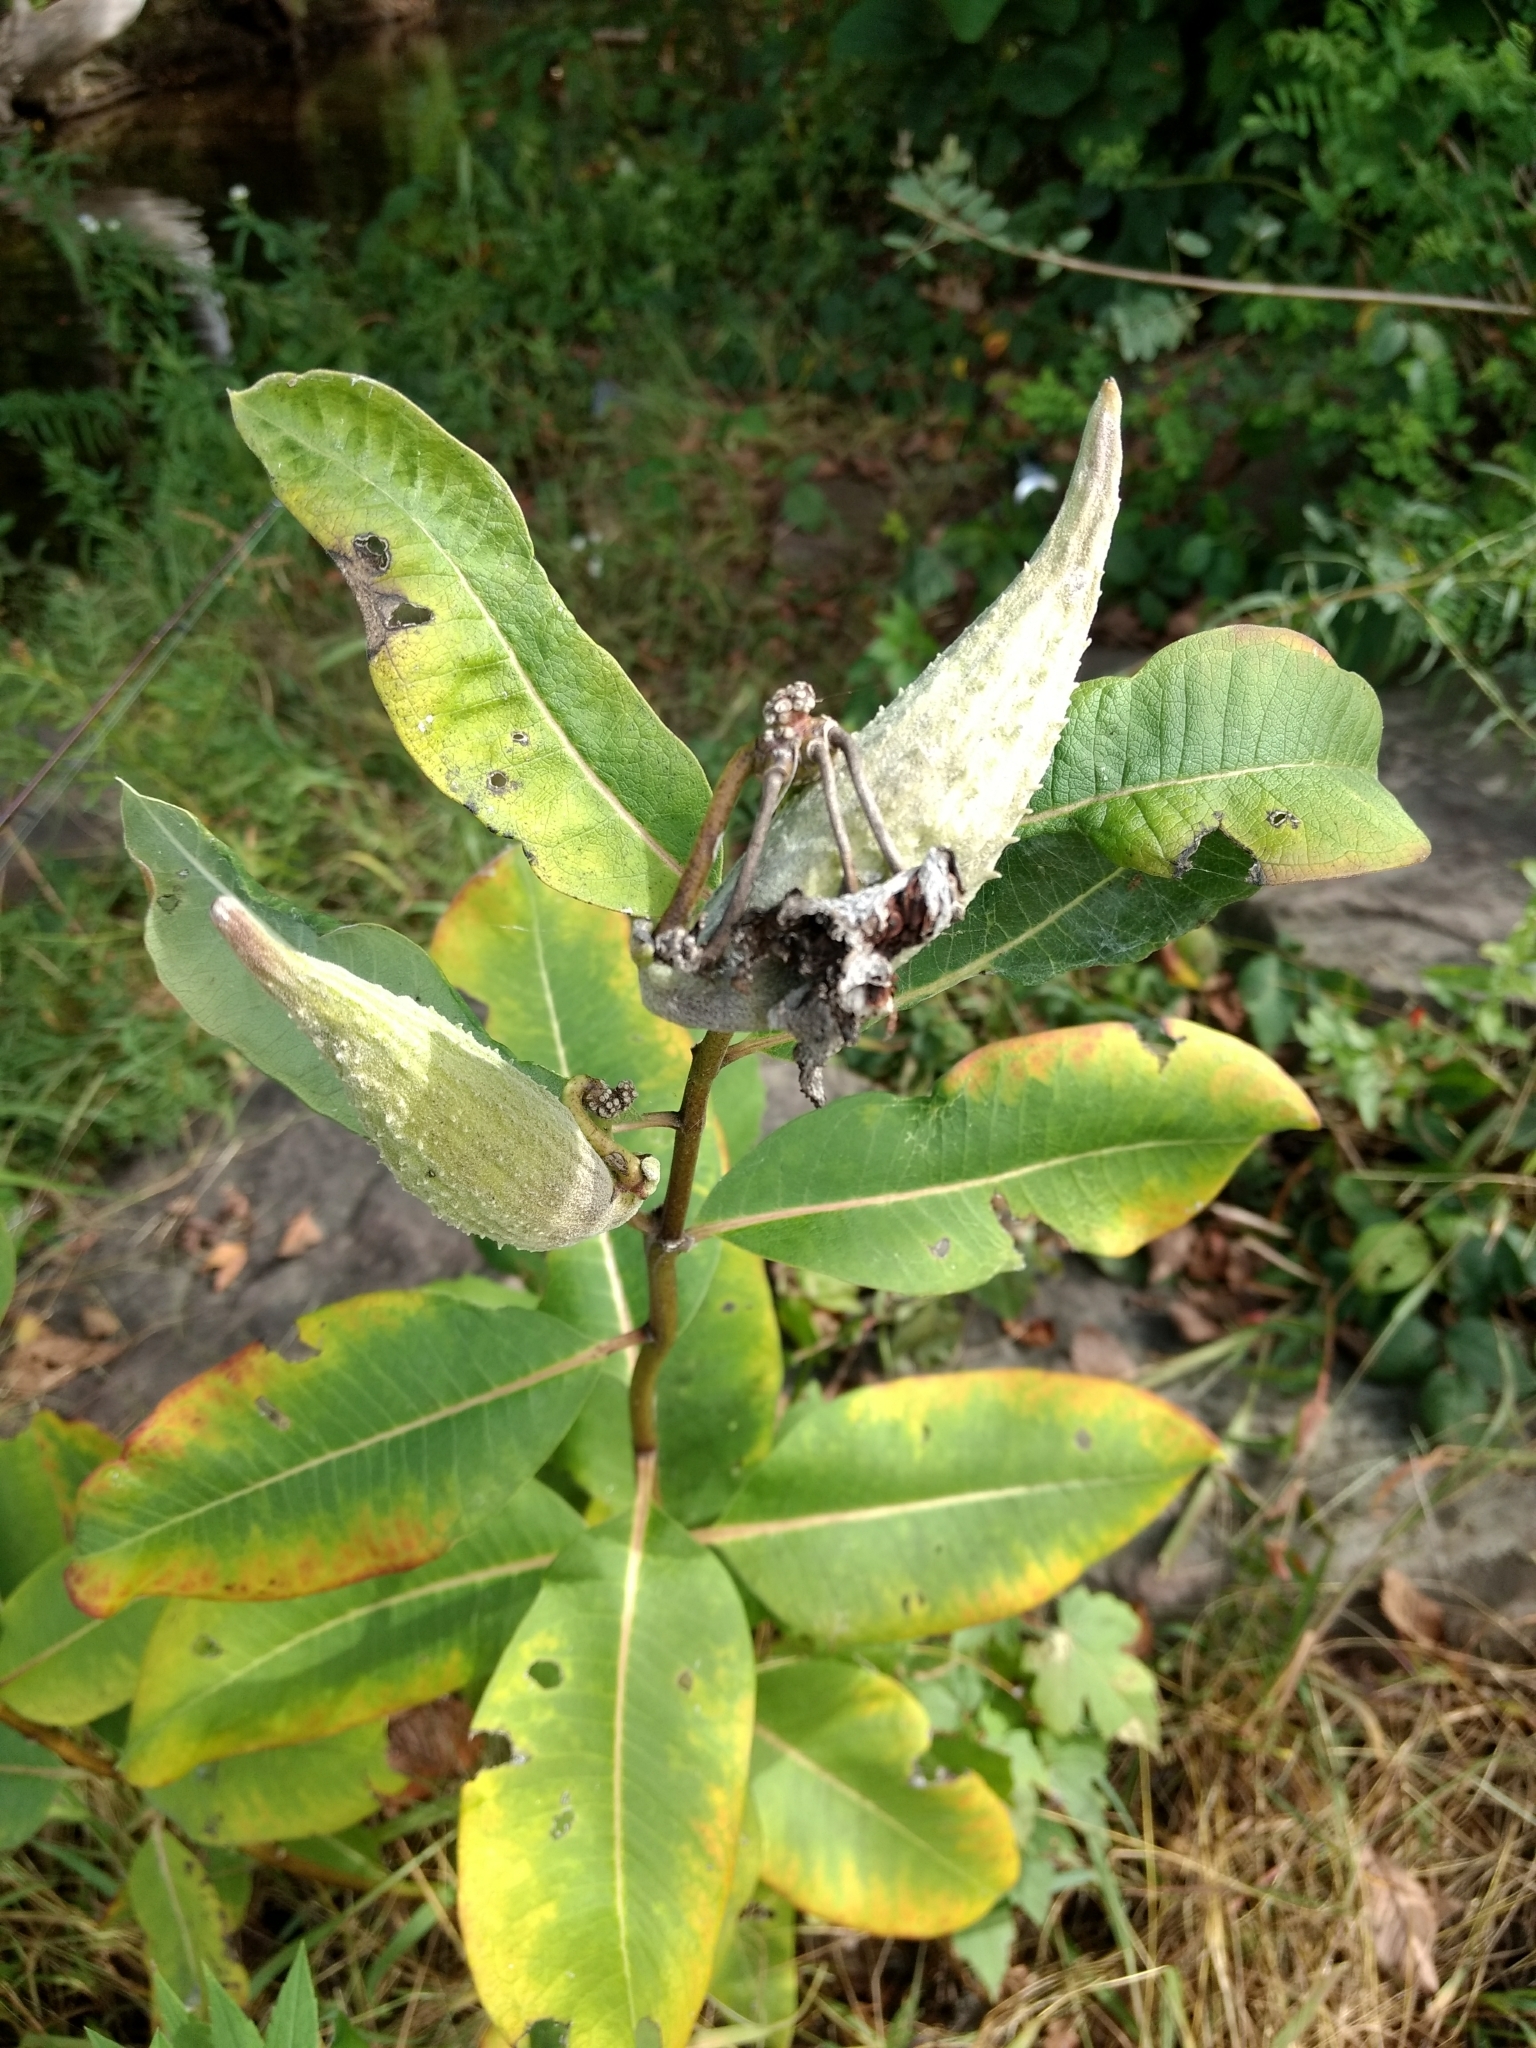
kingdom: Plantae
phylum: Tracheophyta
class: Magnoliopsida
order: Gentianales
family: Apocynaceae
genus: Asclepias
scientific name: Asclepias syriaca
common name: Common milkweed
